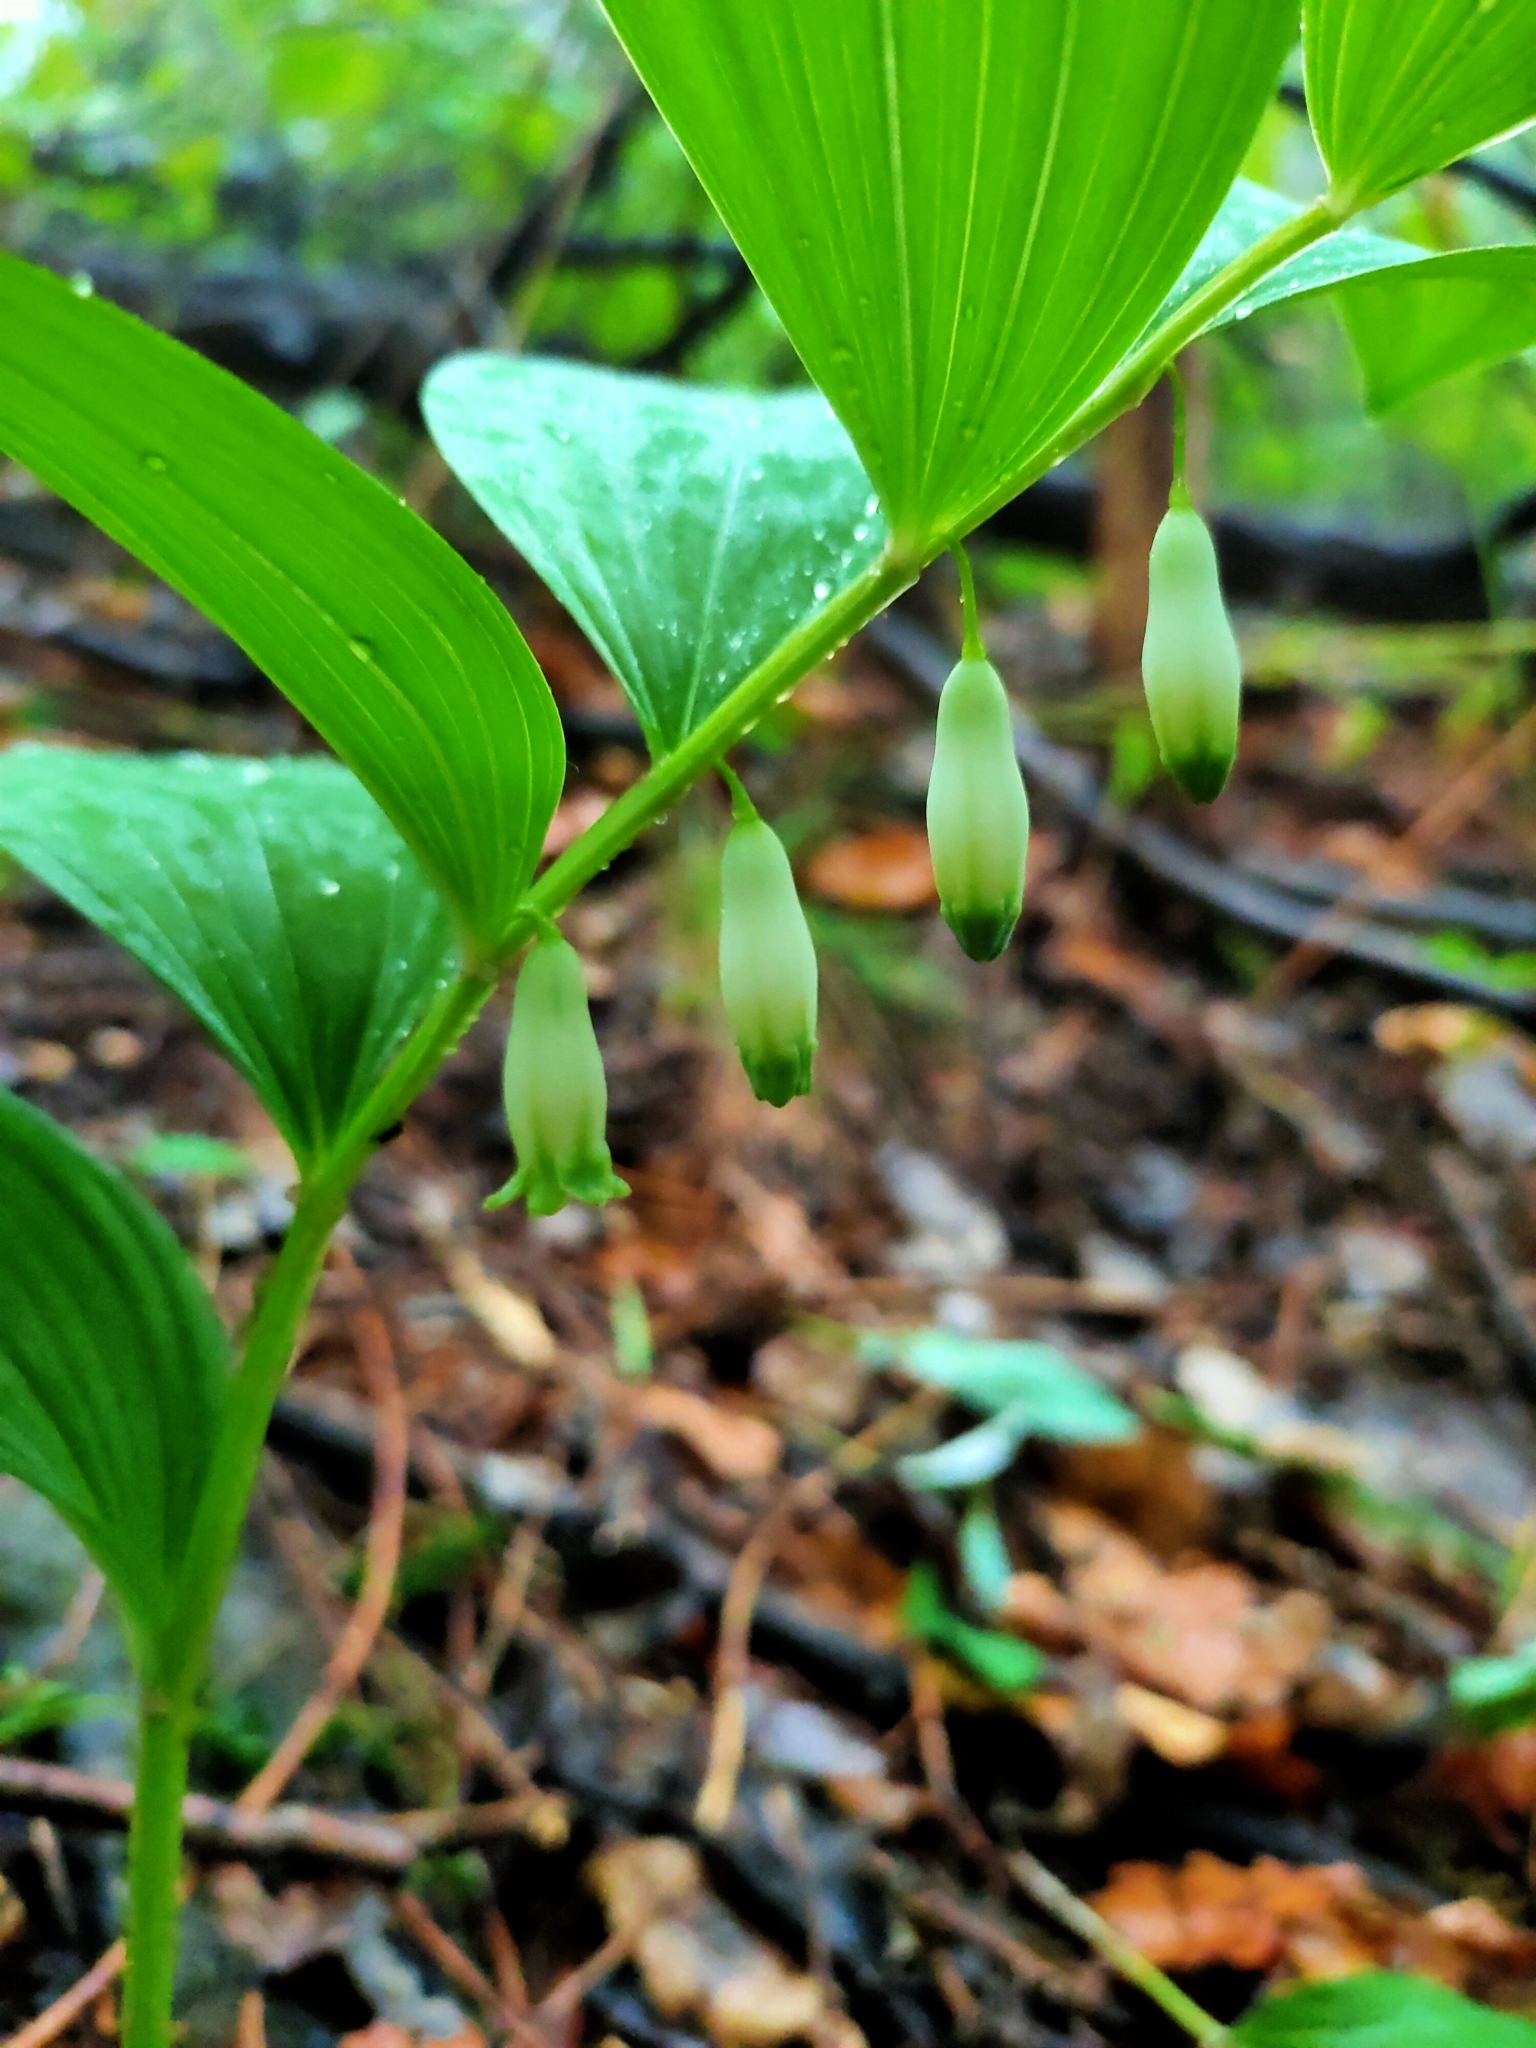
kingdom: Plantae
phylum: Tracheophyta
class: Liliopsida
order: Asparagales
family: Asparagaceae
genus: Polygonatum
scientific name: Polygonatum odoratum
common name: Angular solomon's-seal
